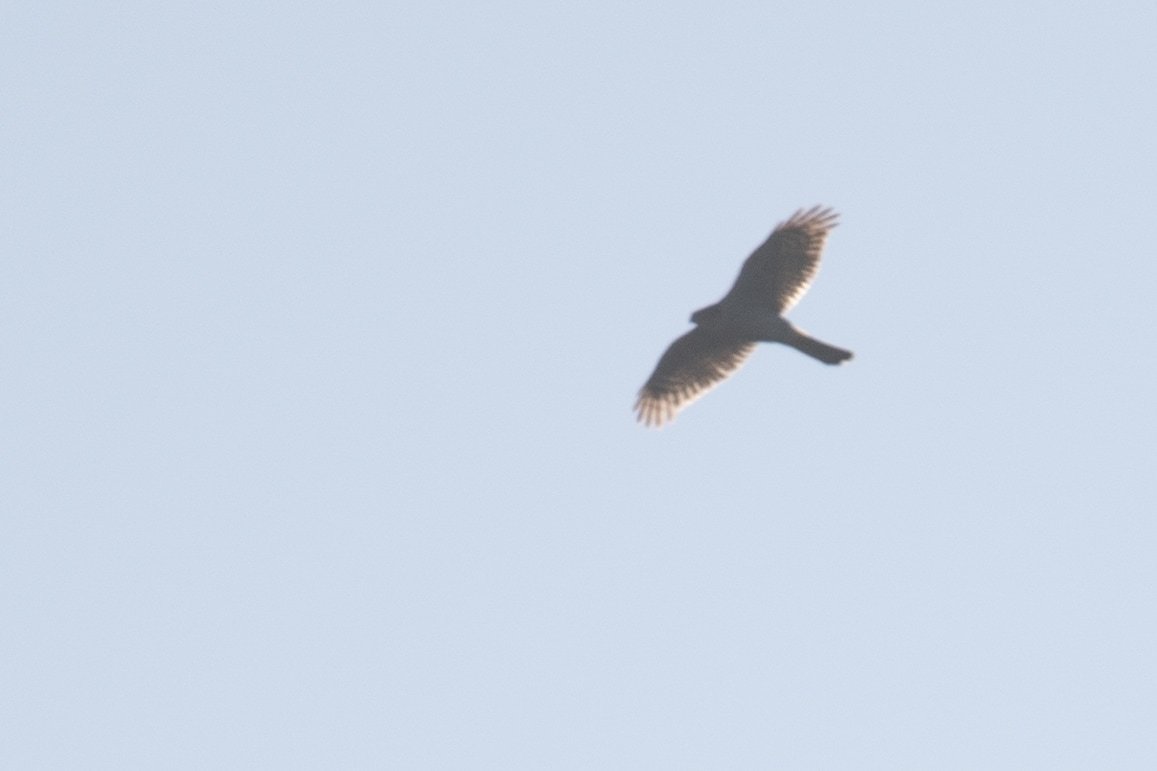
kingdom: Animalia
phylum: Chordata
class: Aves
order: Accipitriformes
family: Accipitridae
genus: Accipiter
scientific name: Accipiter nisus
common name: Eurasian sparrowhawk
